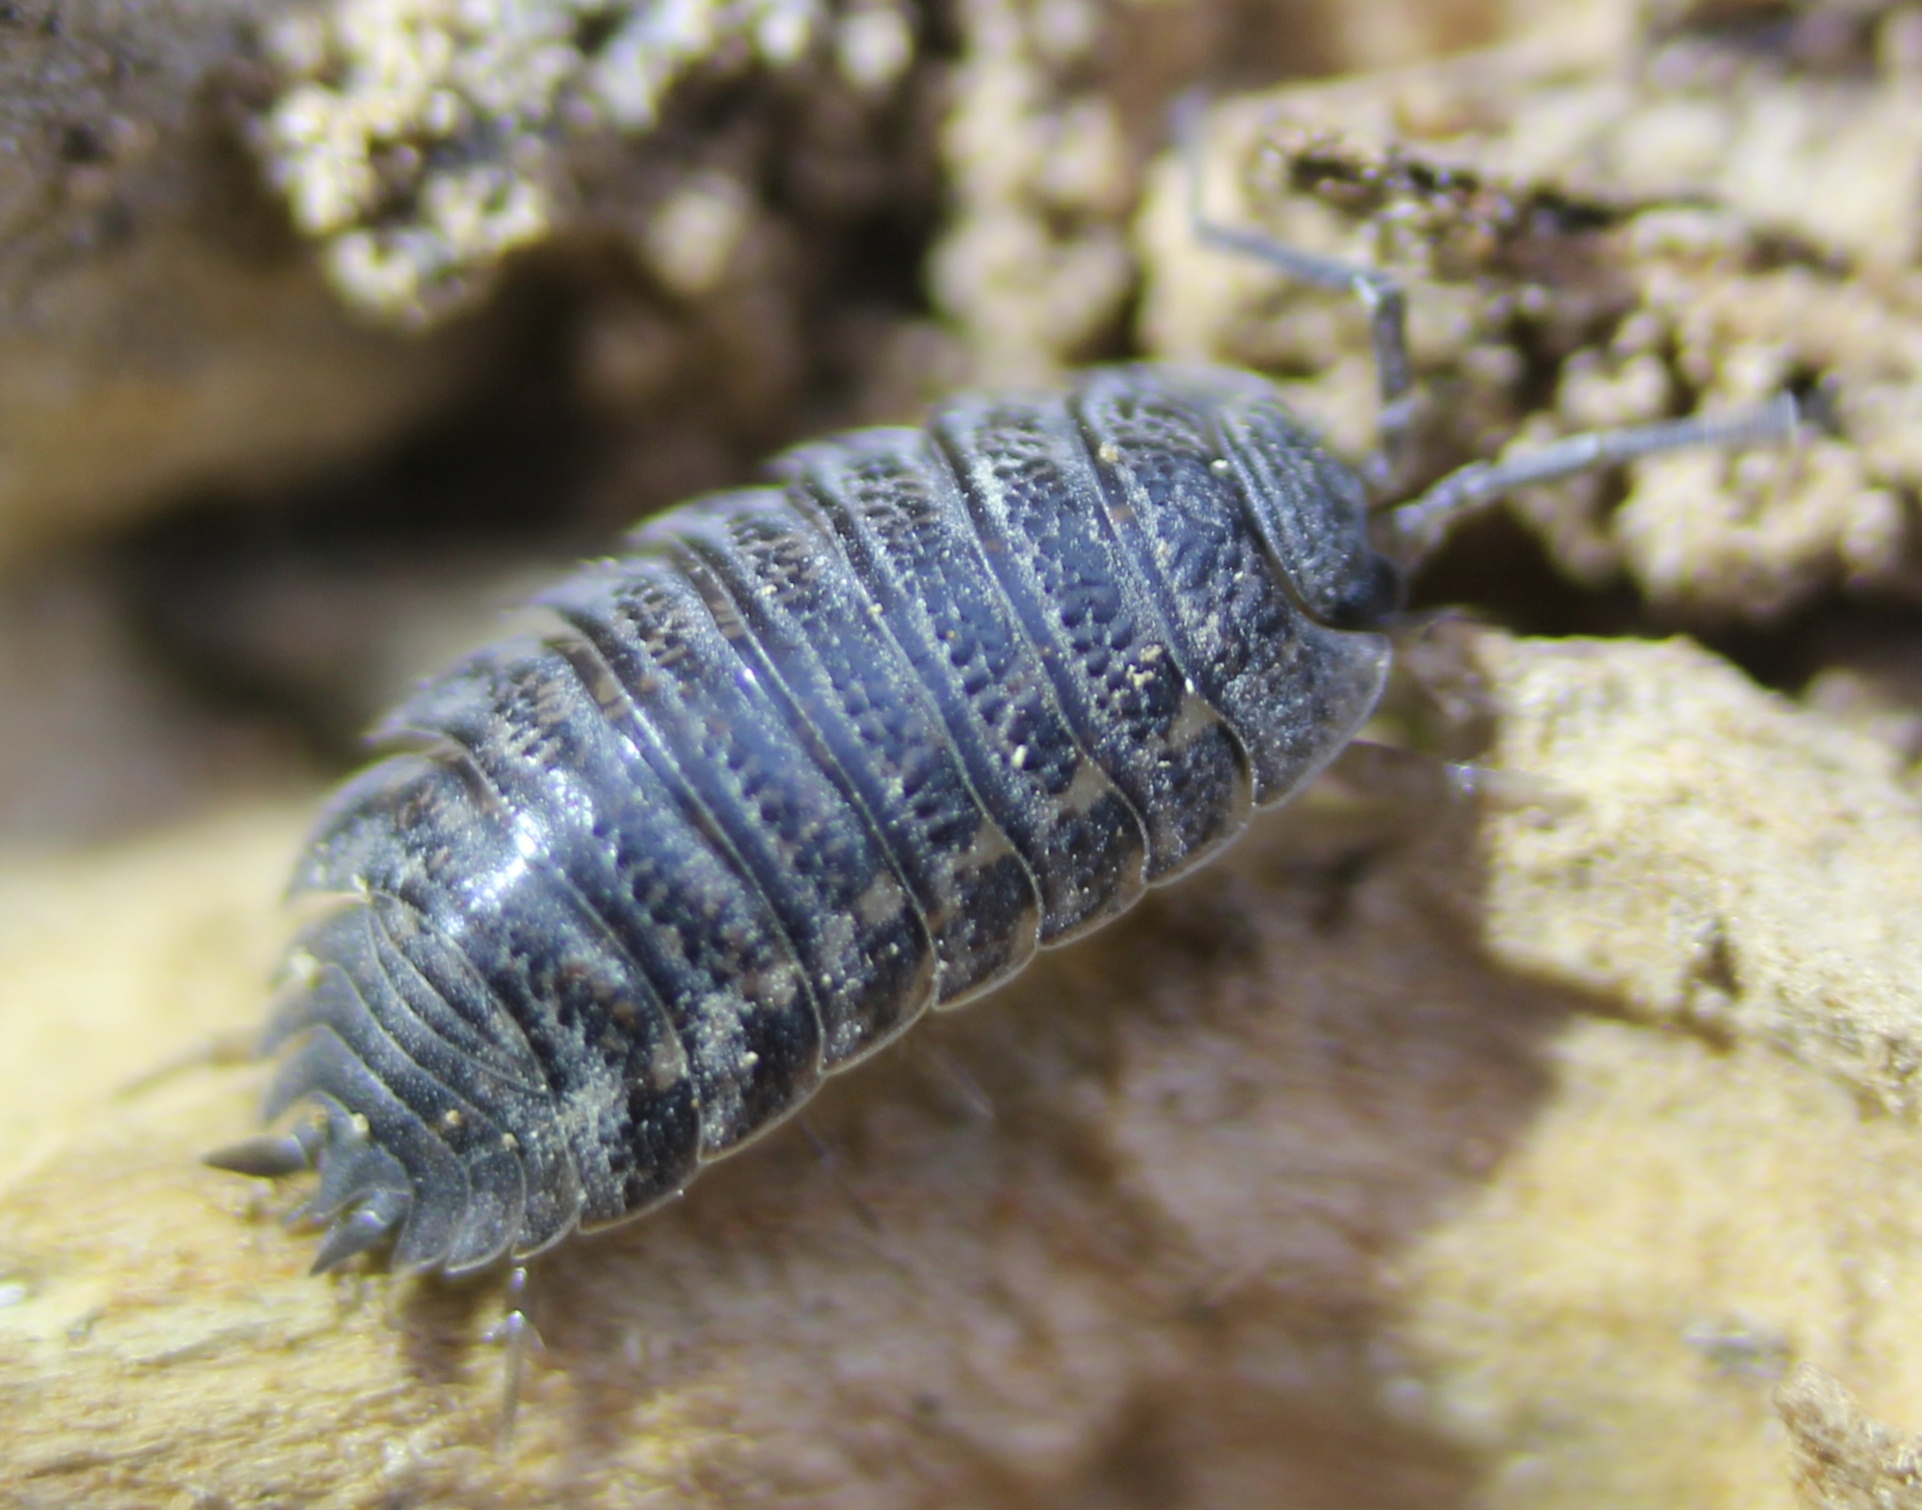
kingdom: Animalia
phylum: Arthropoda
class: Malacostraca
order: Isopoda
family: Trachelipodidae
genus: Trachelipus
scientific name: Trachelipus rathkii
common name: Isopod
